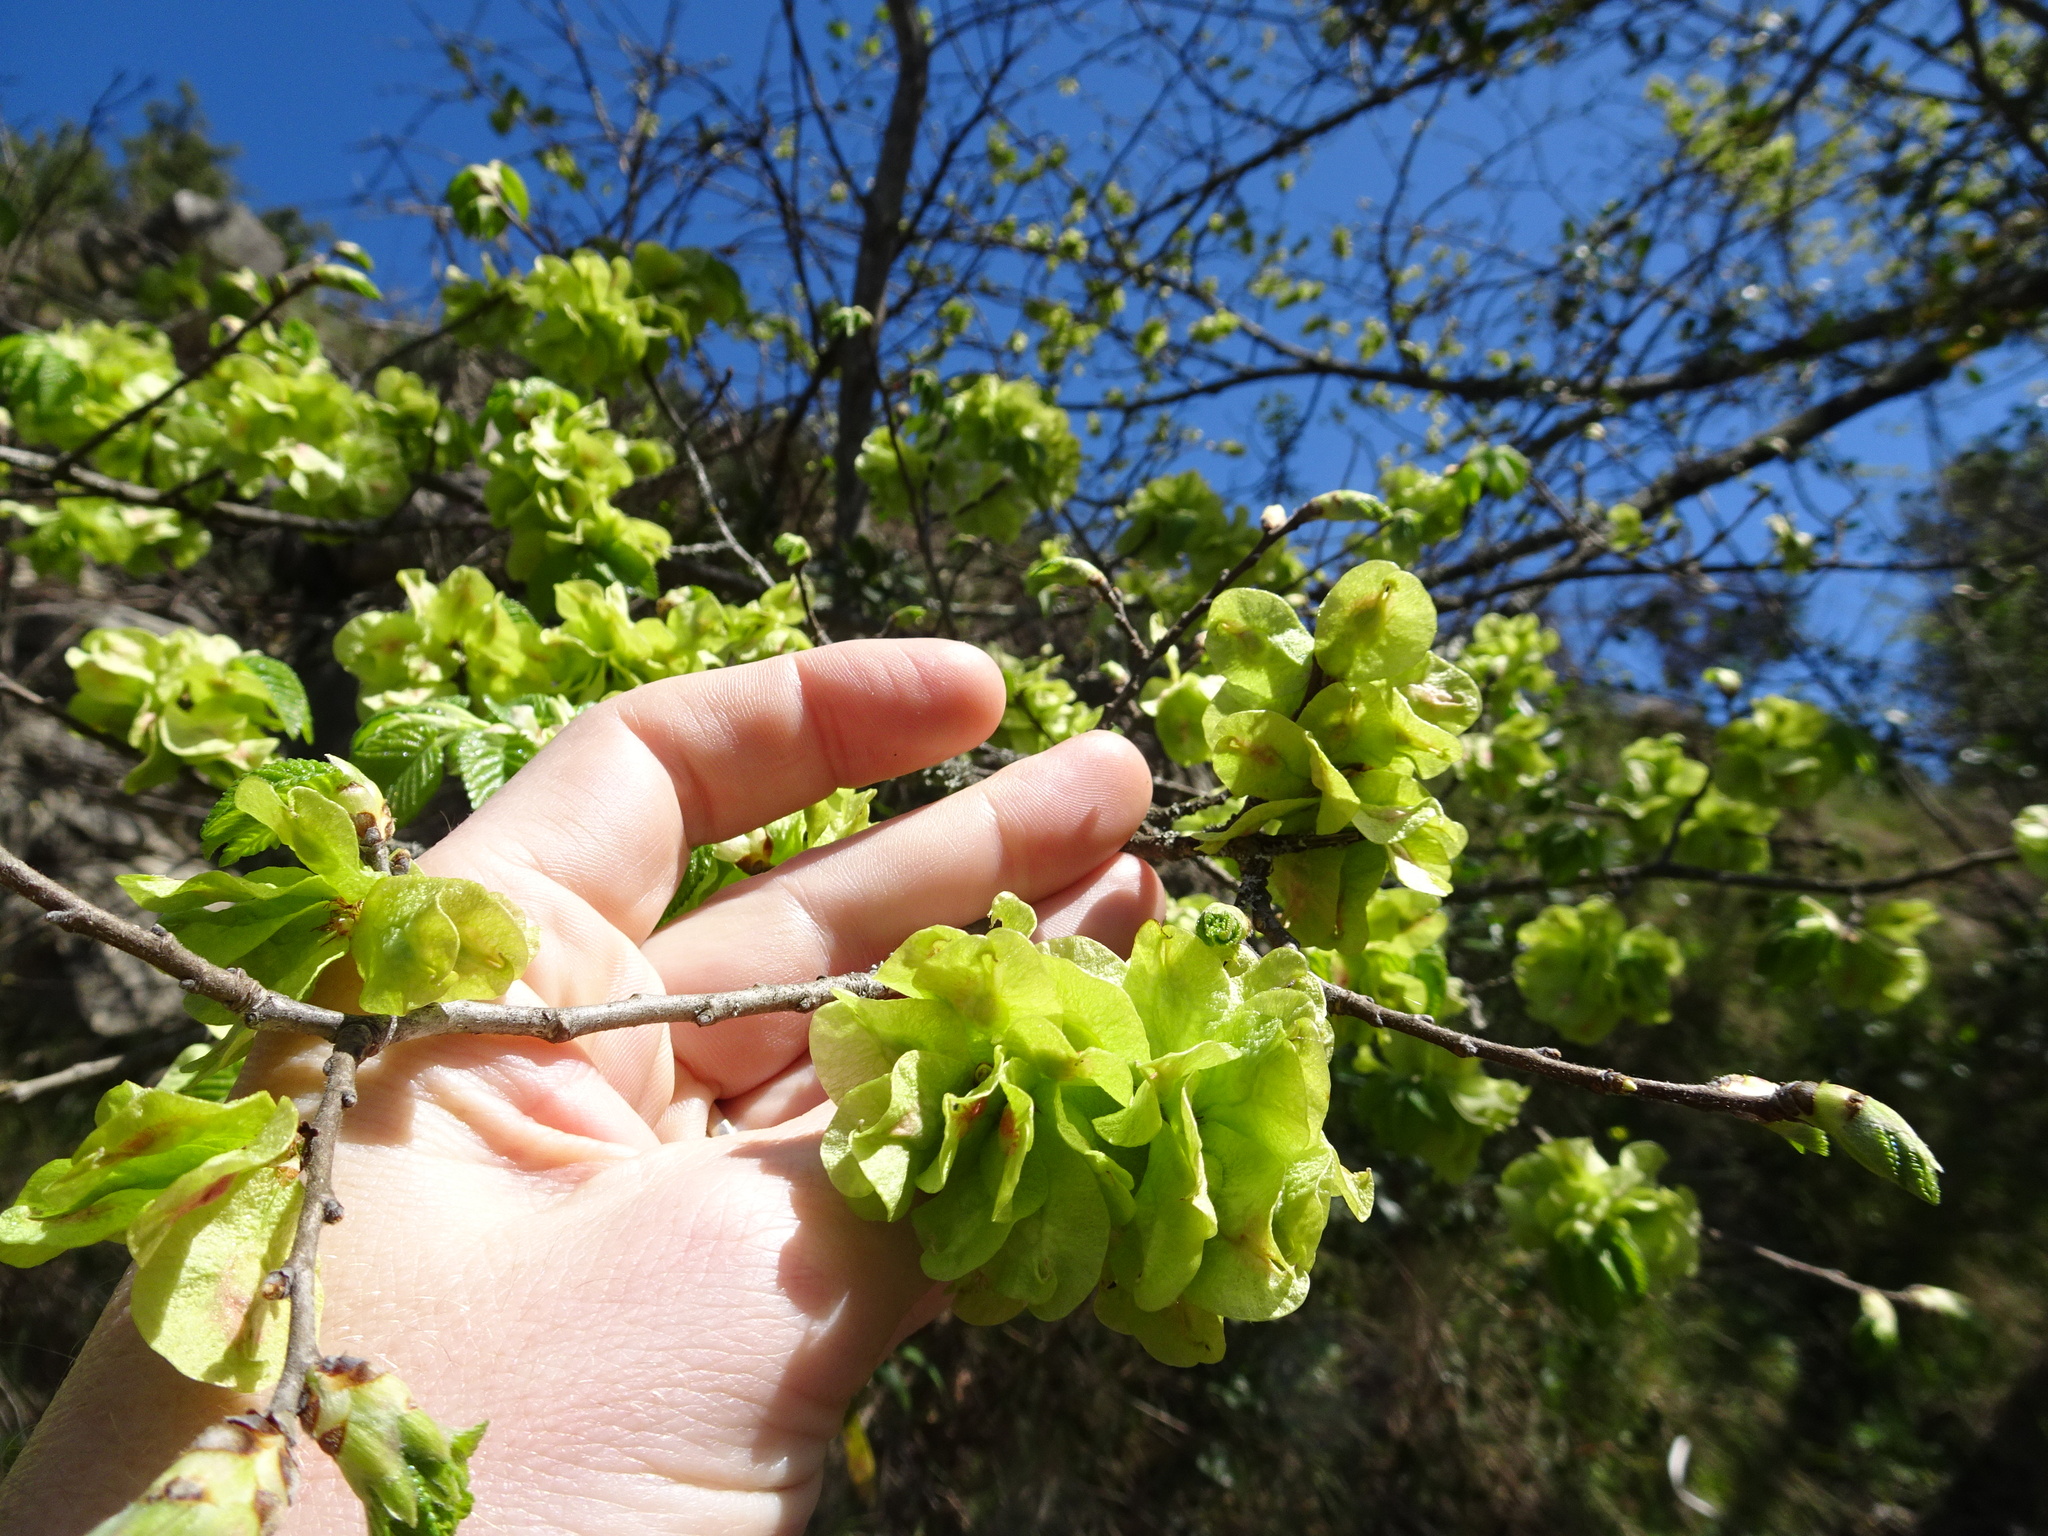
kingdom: Plantae
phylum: Tracheophyta
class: Magnoliopsida
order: Rosales
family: Ulmaceae
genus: Ulmus
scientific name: Ulmus minor
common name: Small-leaved elm
